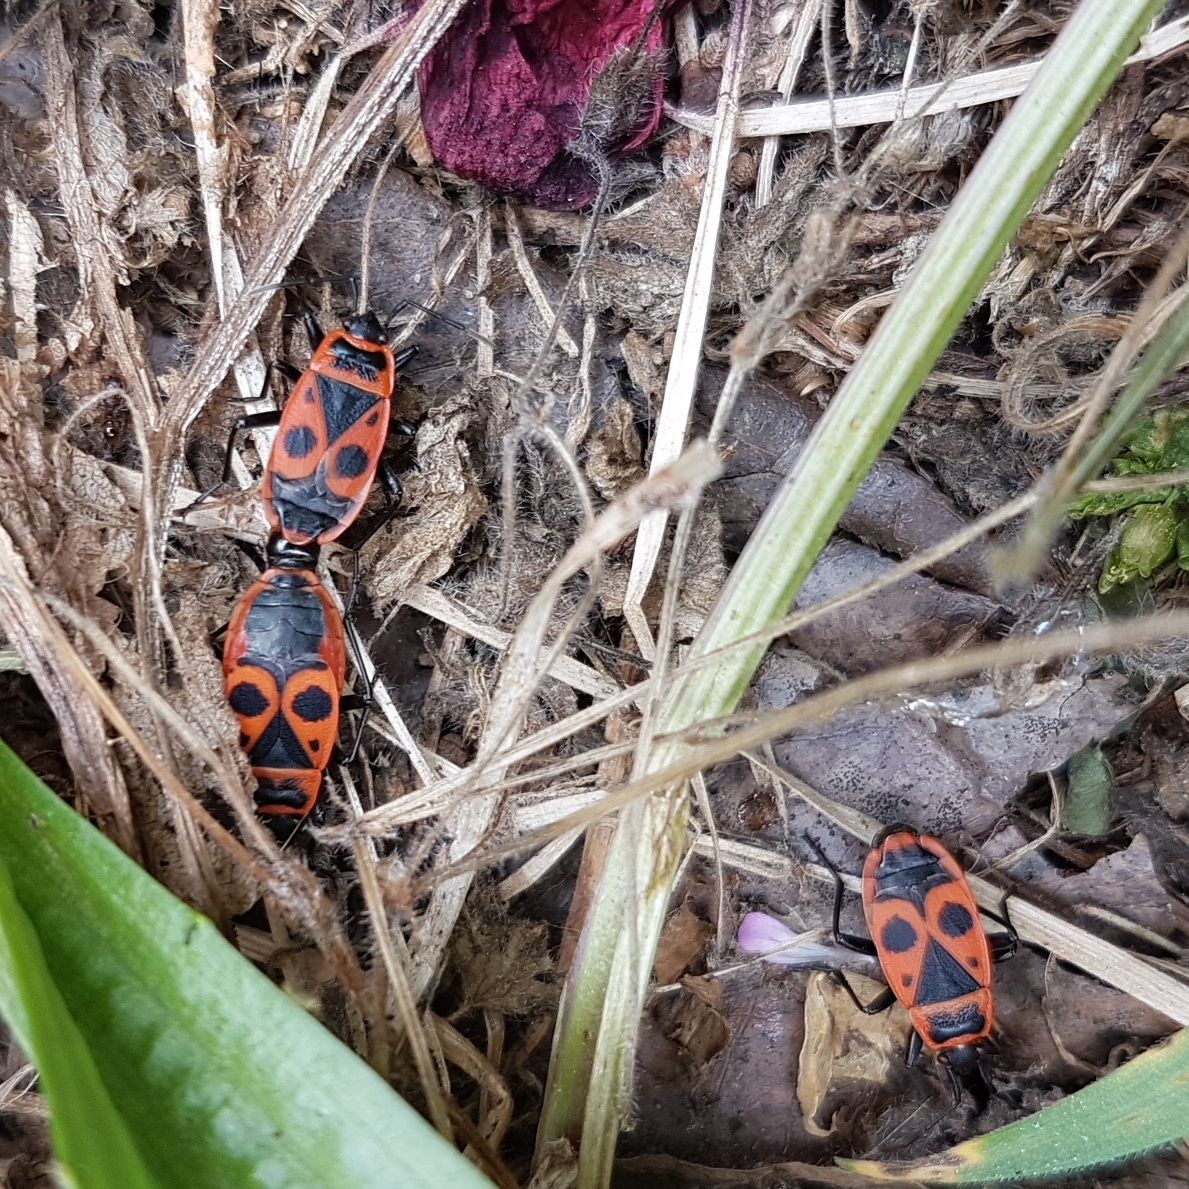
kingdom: Animalia
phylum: Arthropoda
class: Insecta
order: Hemiptera
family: Pyrrhocoridae
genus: Pyrrhocoris
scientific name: Pyrrhocoris apterus
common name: Firebug
